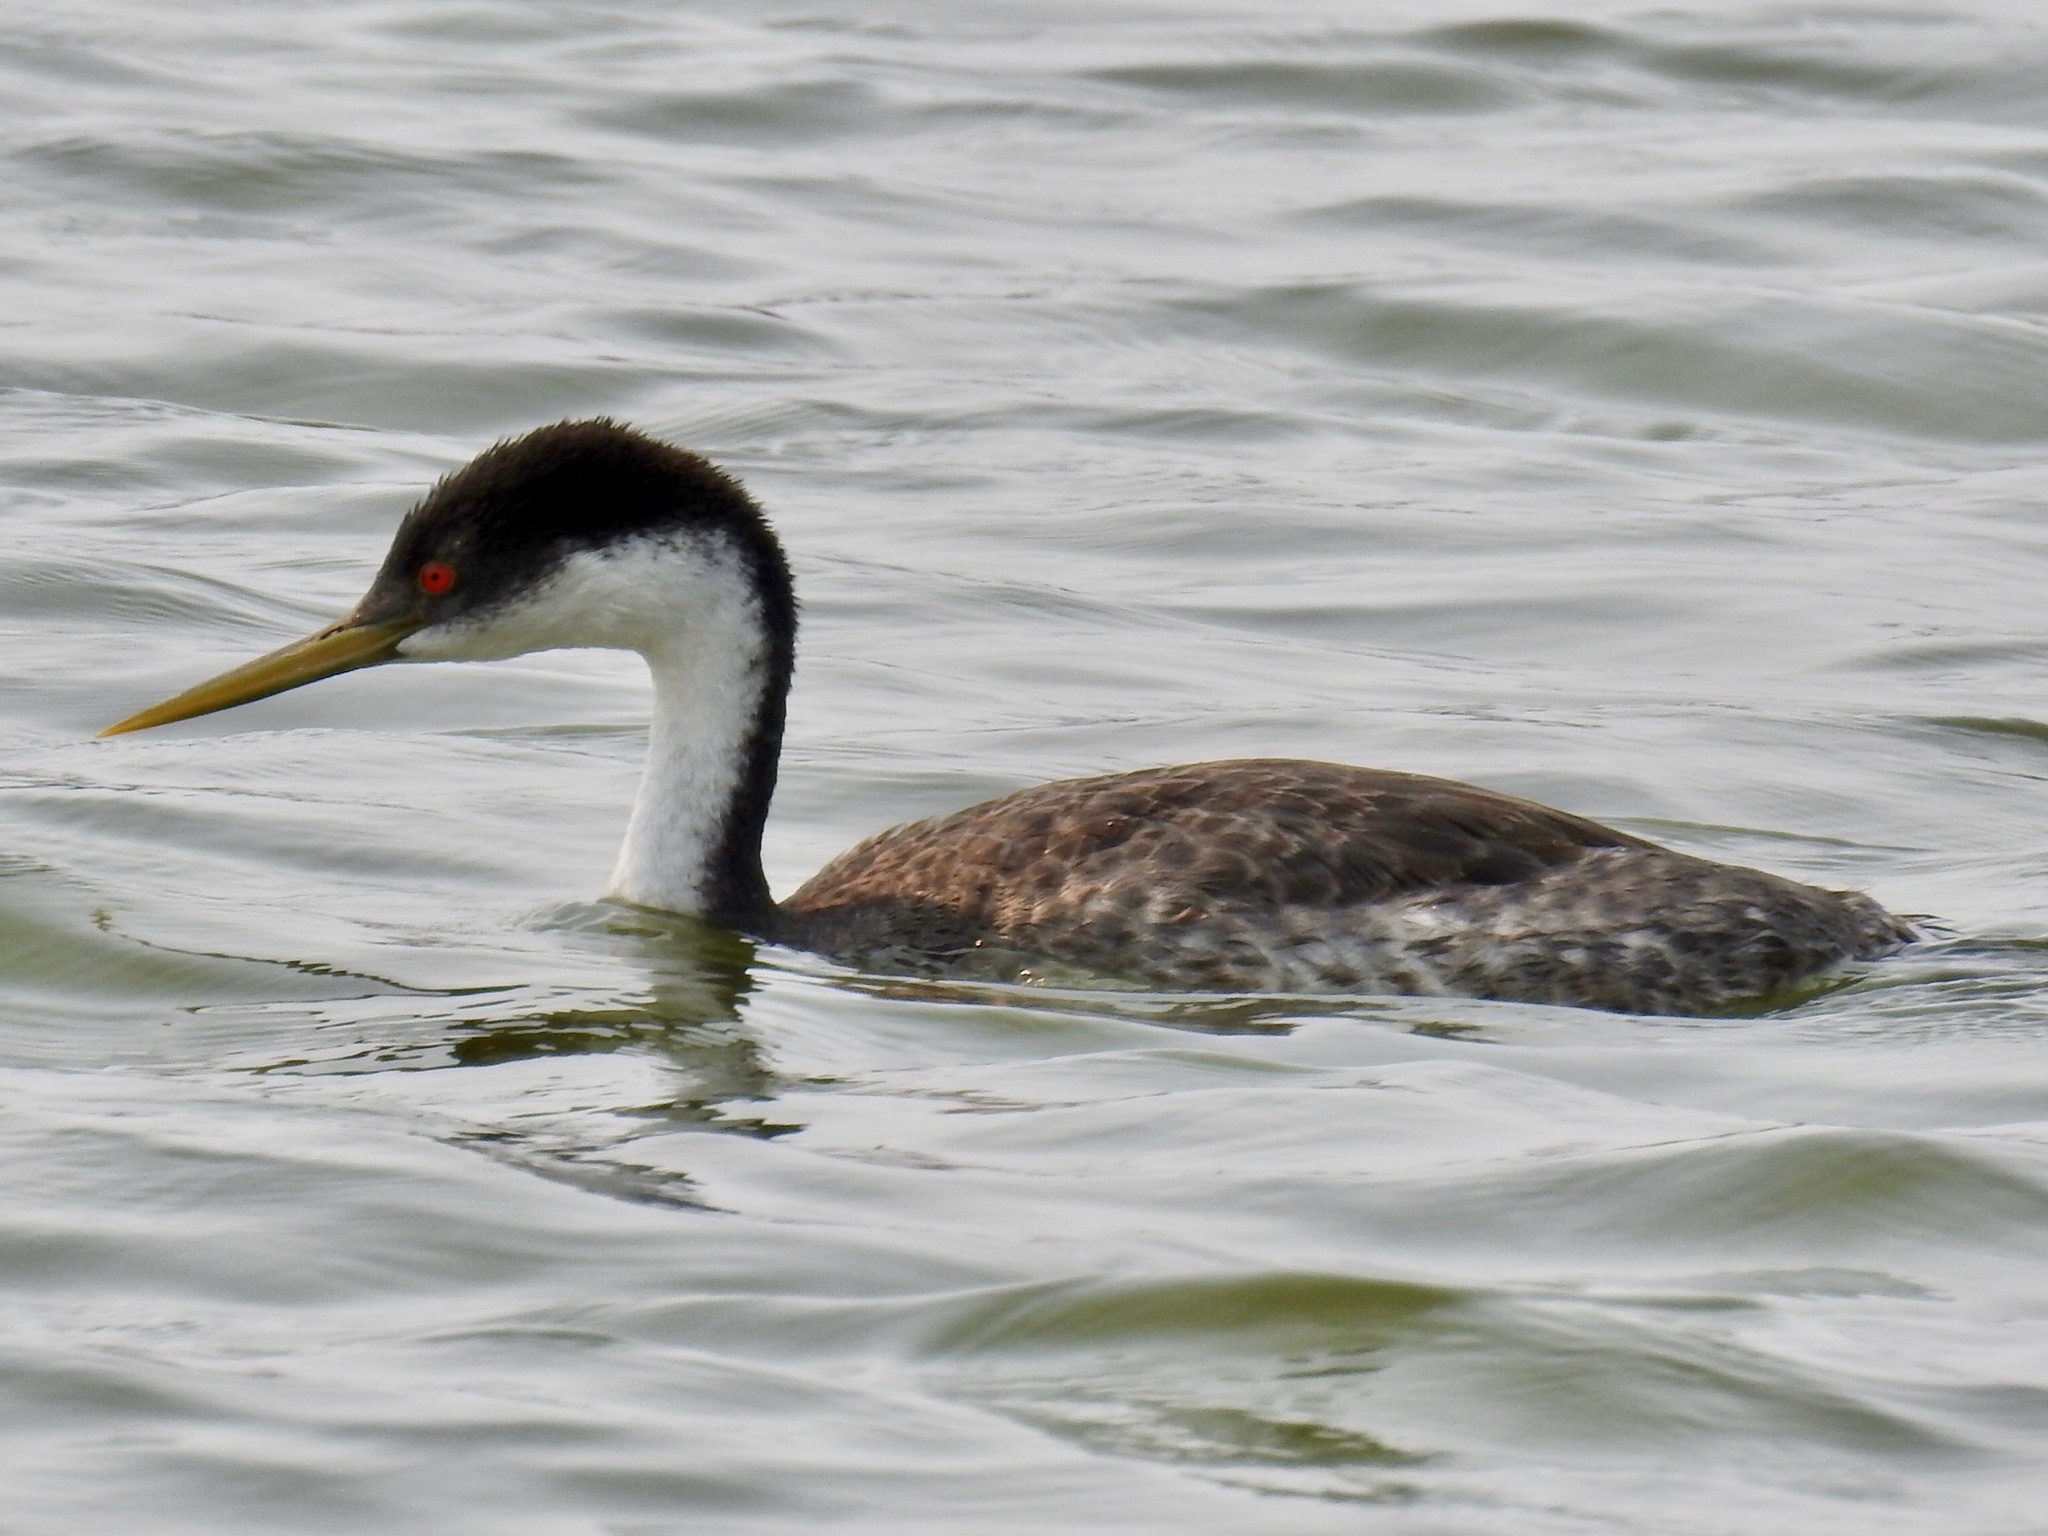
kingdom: Animalia
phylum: Chordata
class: Aves
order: Podicipediformes
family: Podicipedidae
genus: Aechmophorus
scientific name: Aechmophorus occidentalis
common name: Western grebe
